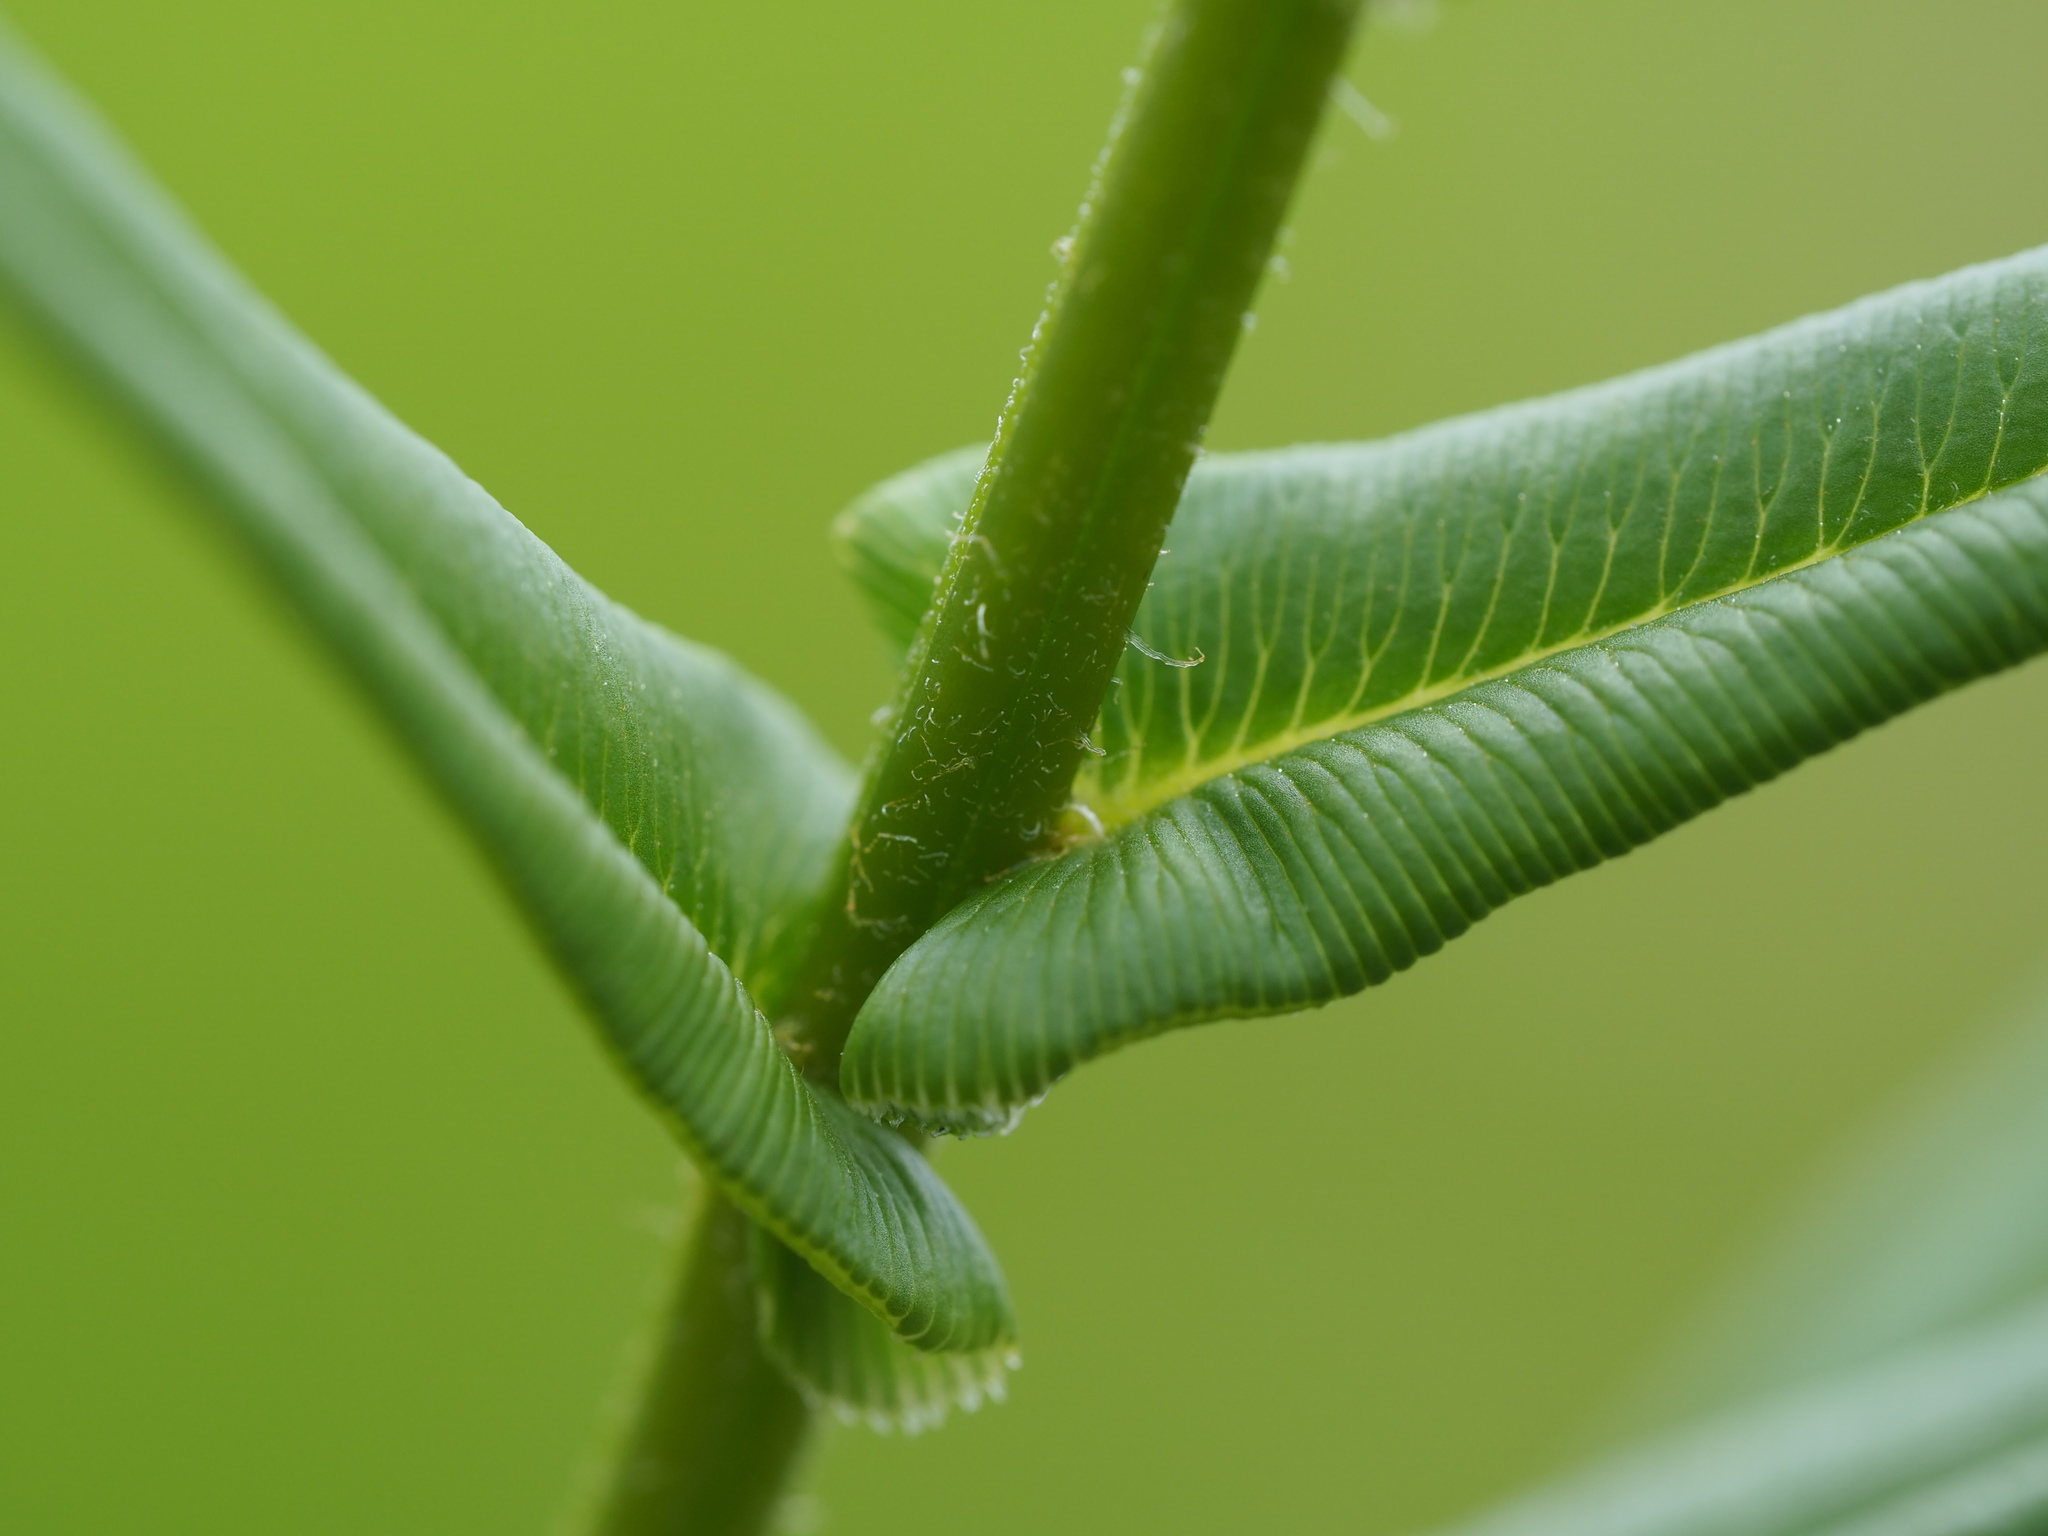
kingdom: Plantae
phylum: Tracheophyta
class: Polypodiopsida
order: Polypodiales
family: Pteridaceae
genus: Pteris
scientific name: Pteris vittata
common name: Ladder brake
